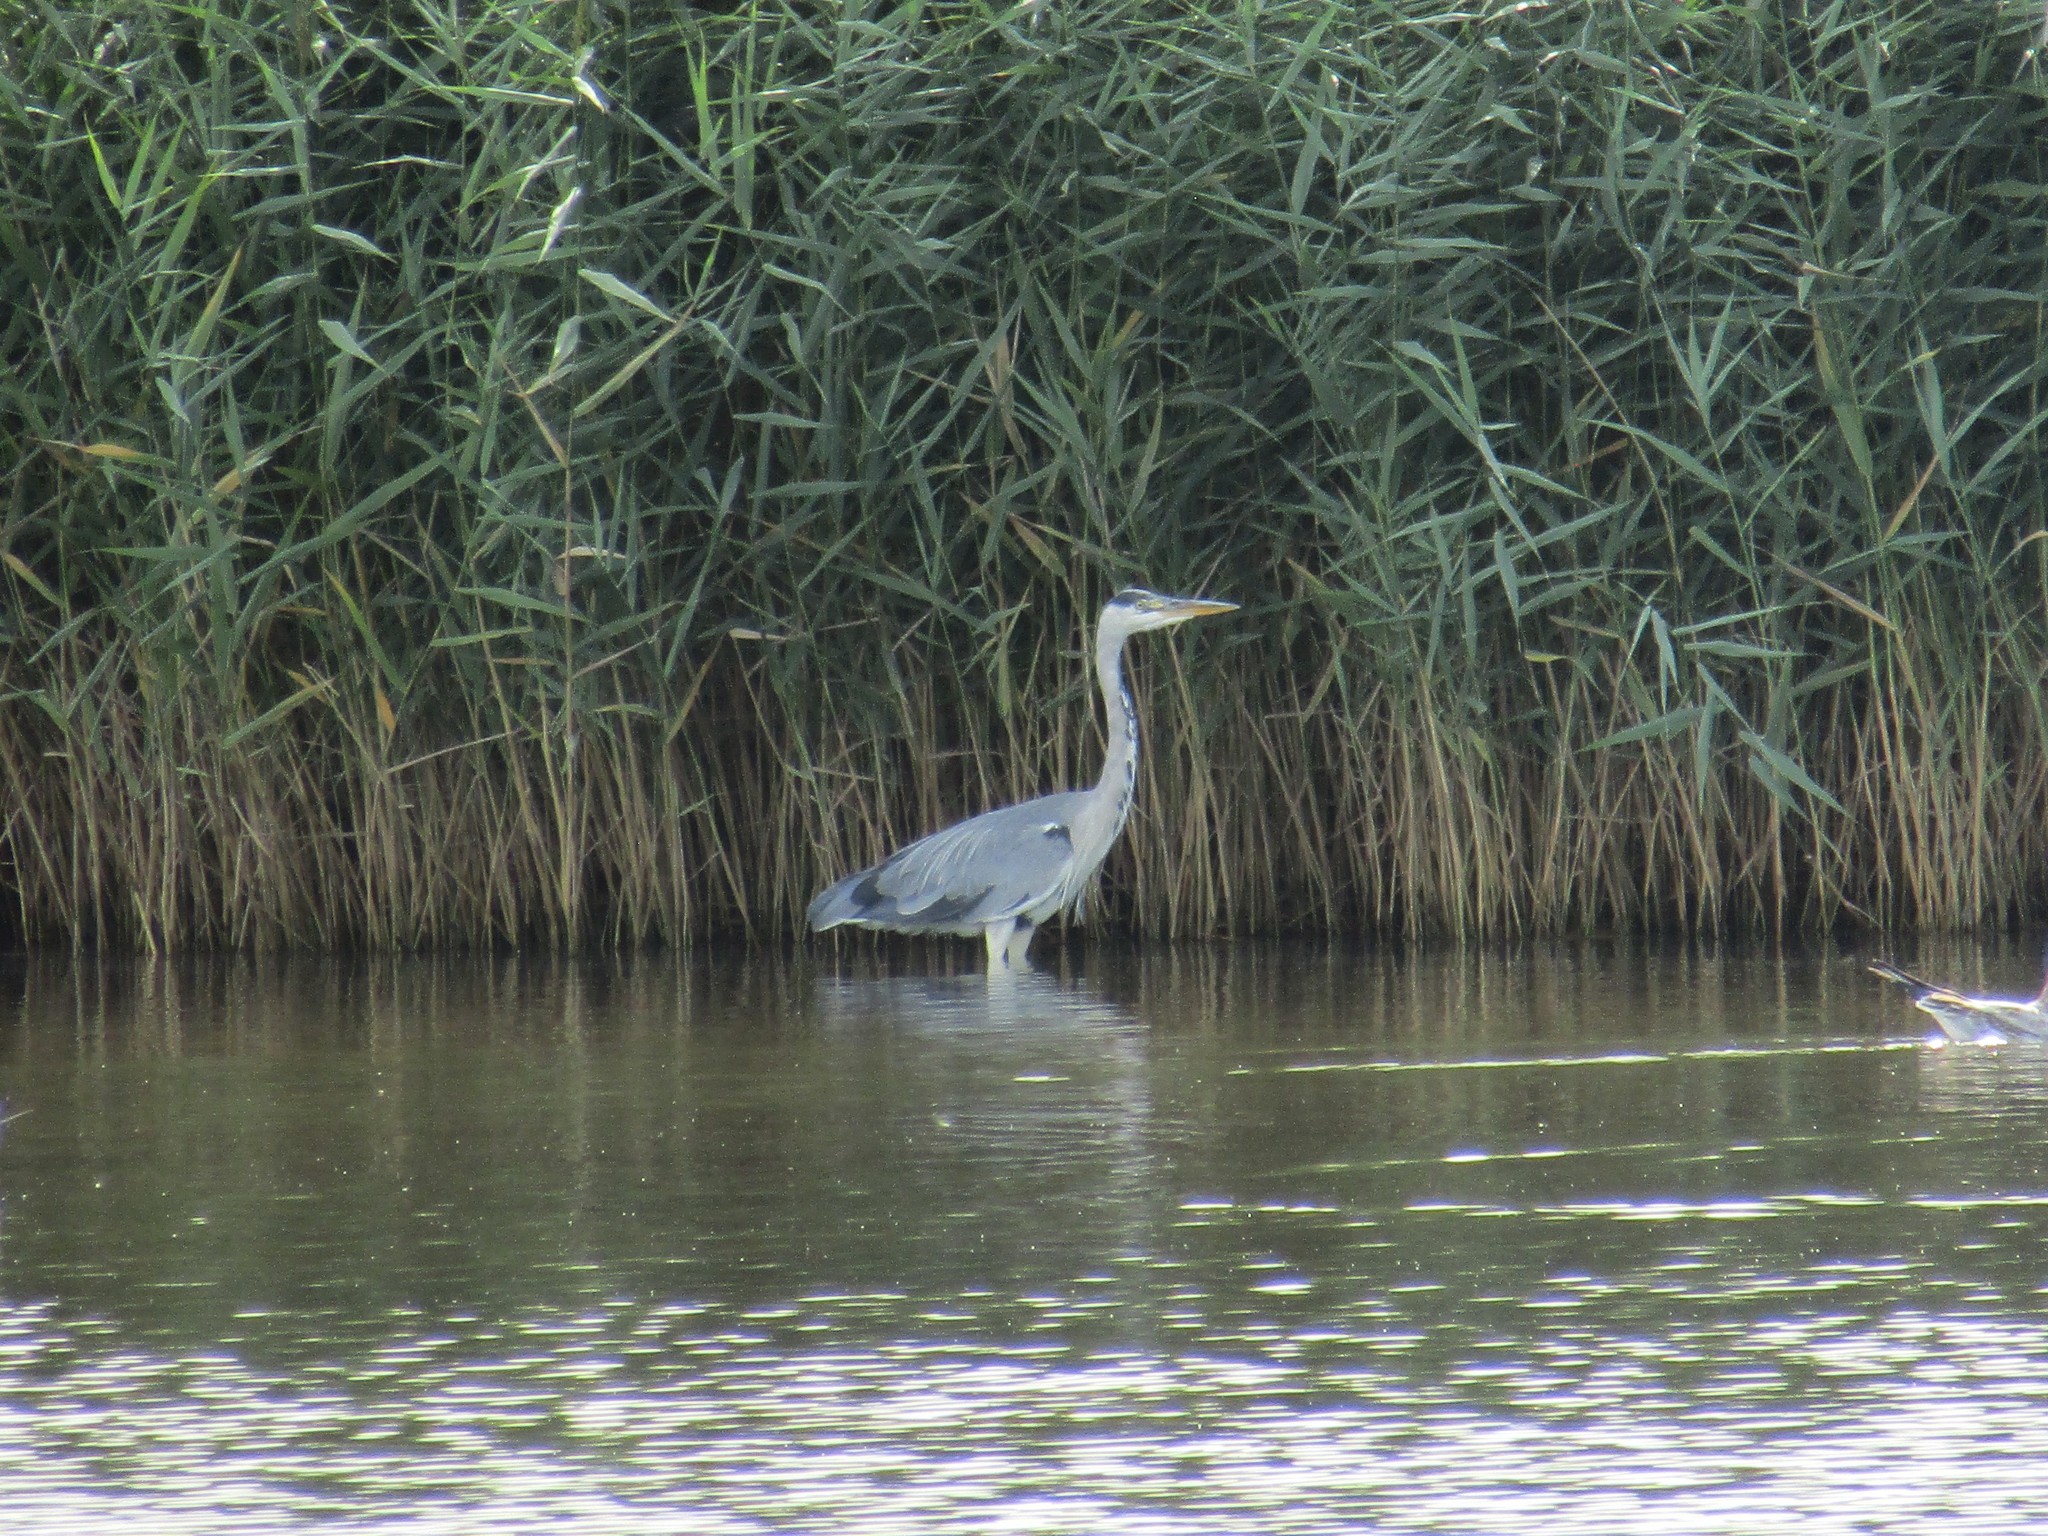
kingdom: Animalia
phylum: Chordata
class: Aves
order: Pelecaniformes
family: Ardeidae
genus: Ardea
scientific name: Ardea cinerea
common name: Grey heron
